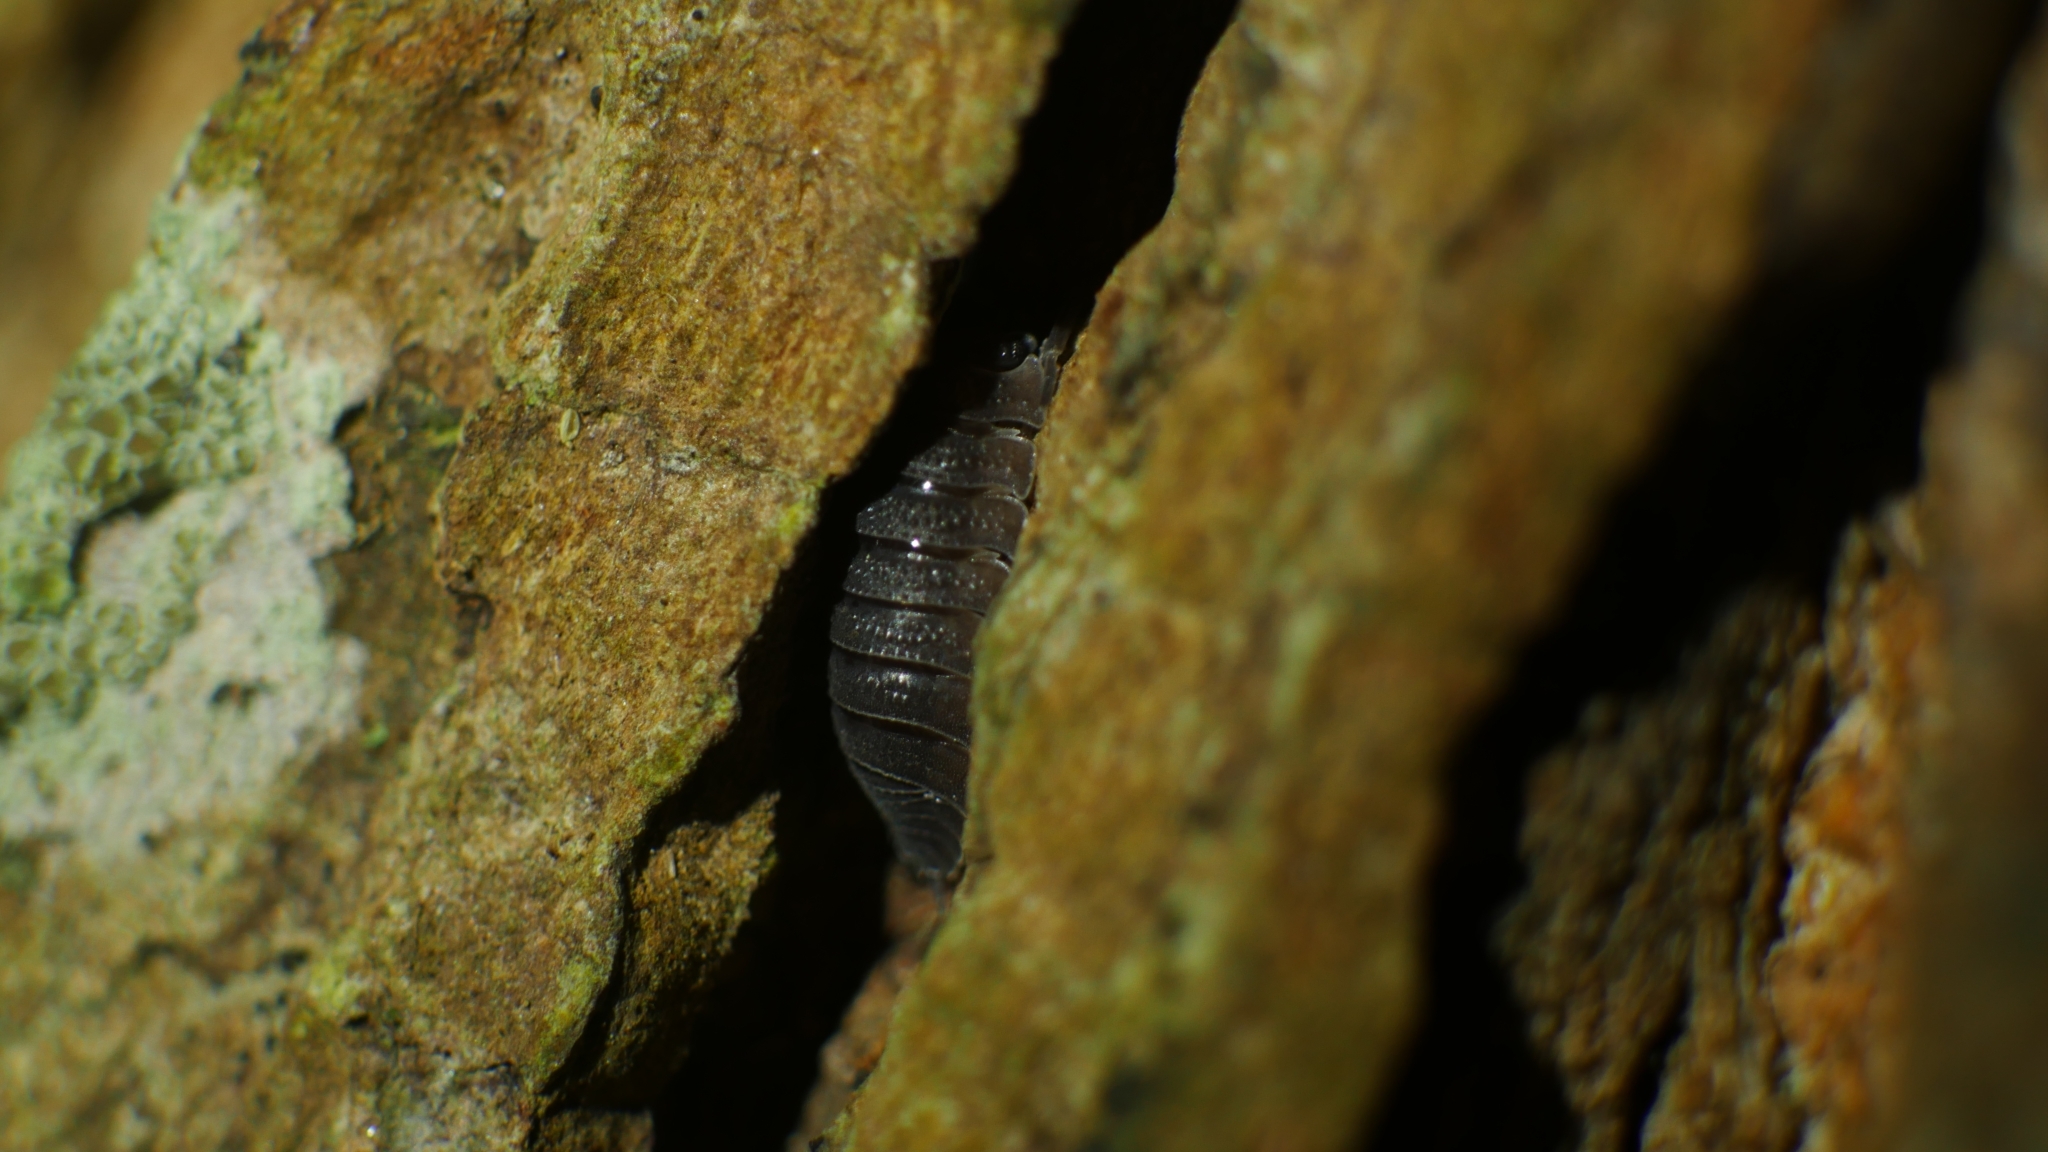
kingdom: Animalia
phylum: Arthropoda
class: Malacostraca
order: Isopoda
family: Porcellionidae
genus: Porcellio
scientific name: Porcellio scaber
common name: Common rough woodlouse
